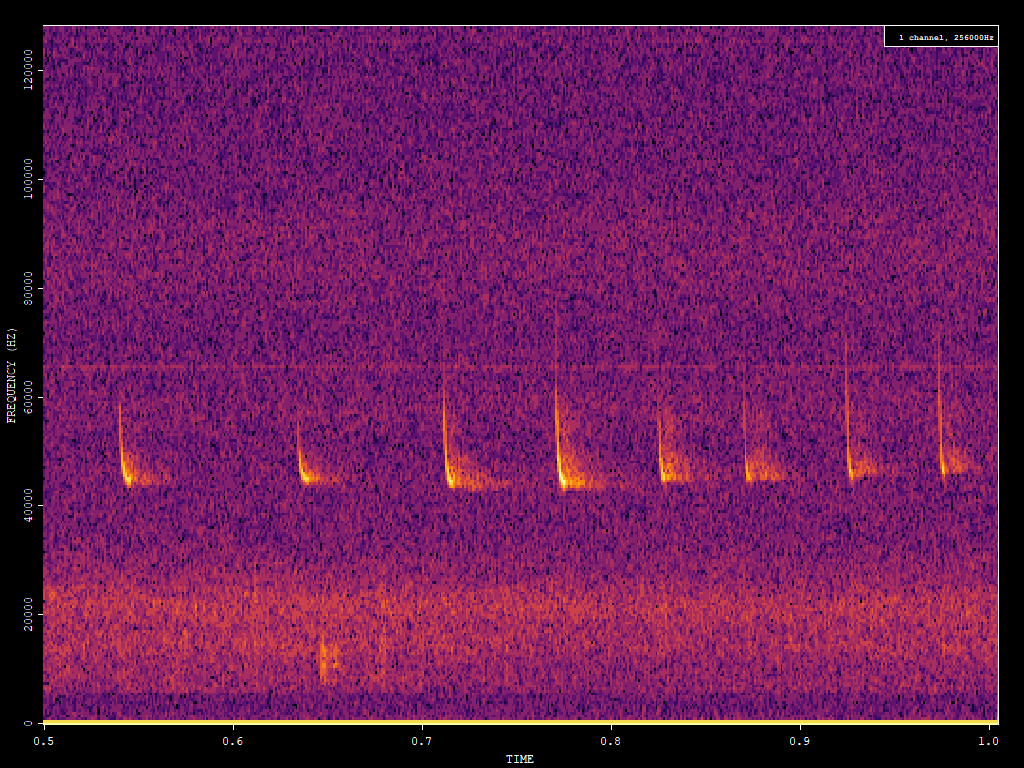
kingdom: Animalia
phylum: Chordata
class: Mammalia
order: Chiroptera
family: Vespertilionidae
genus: Pipistrellus
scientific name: Pipistrellus pipistrellus
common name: Common pipistrelle
